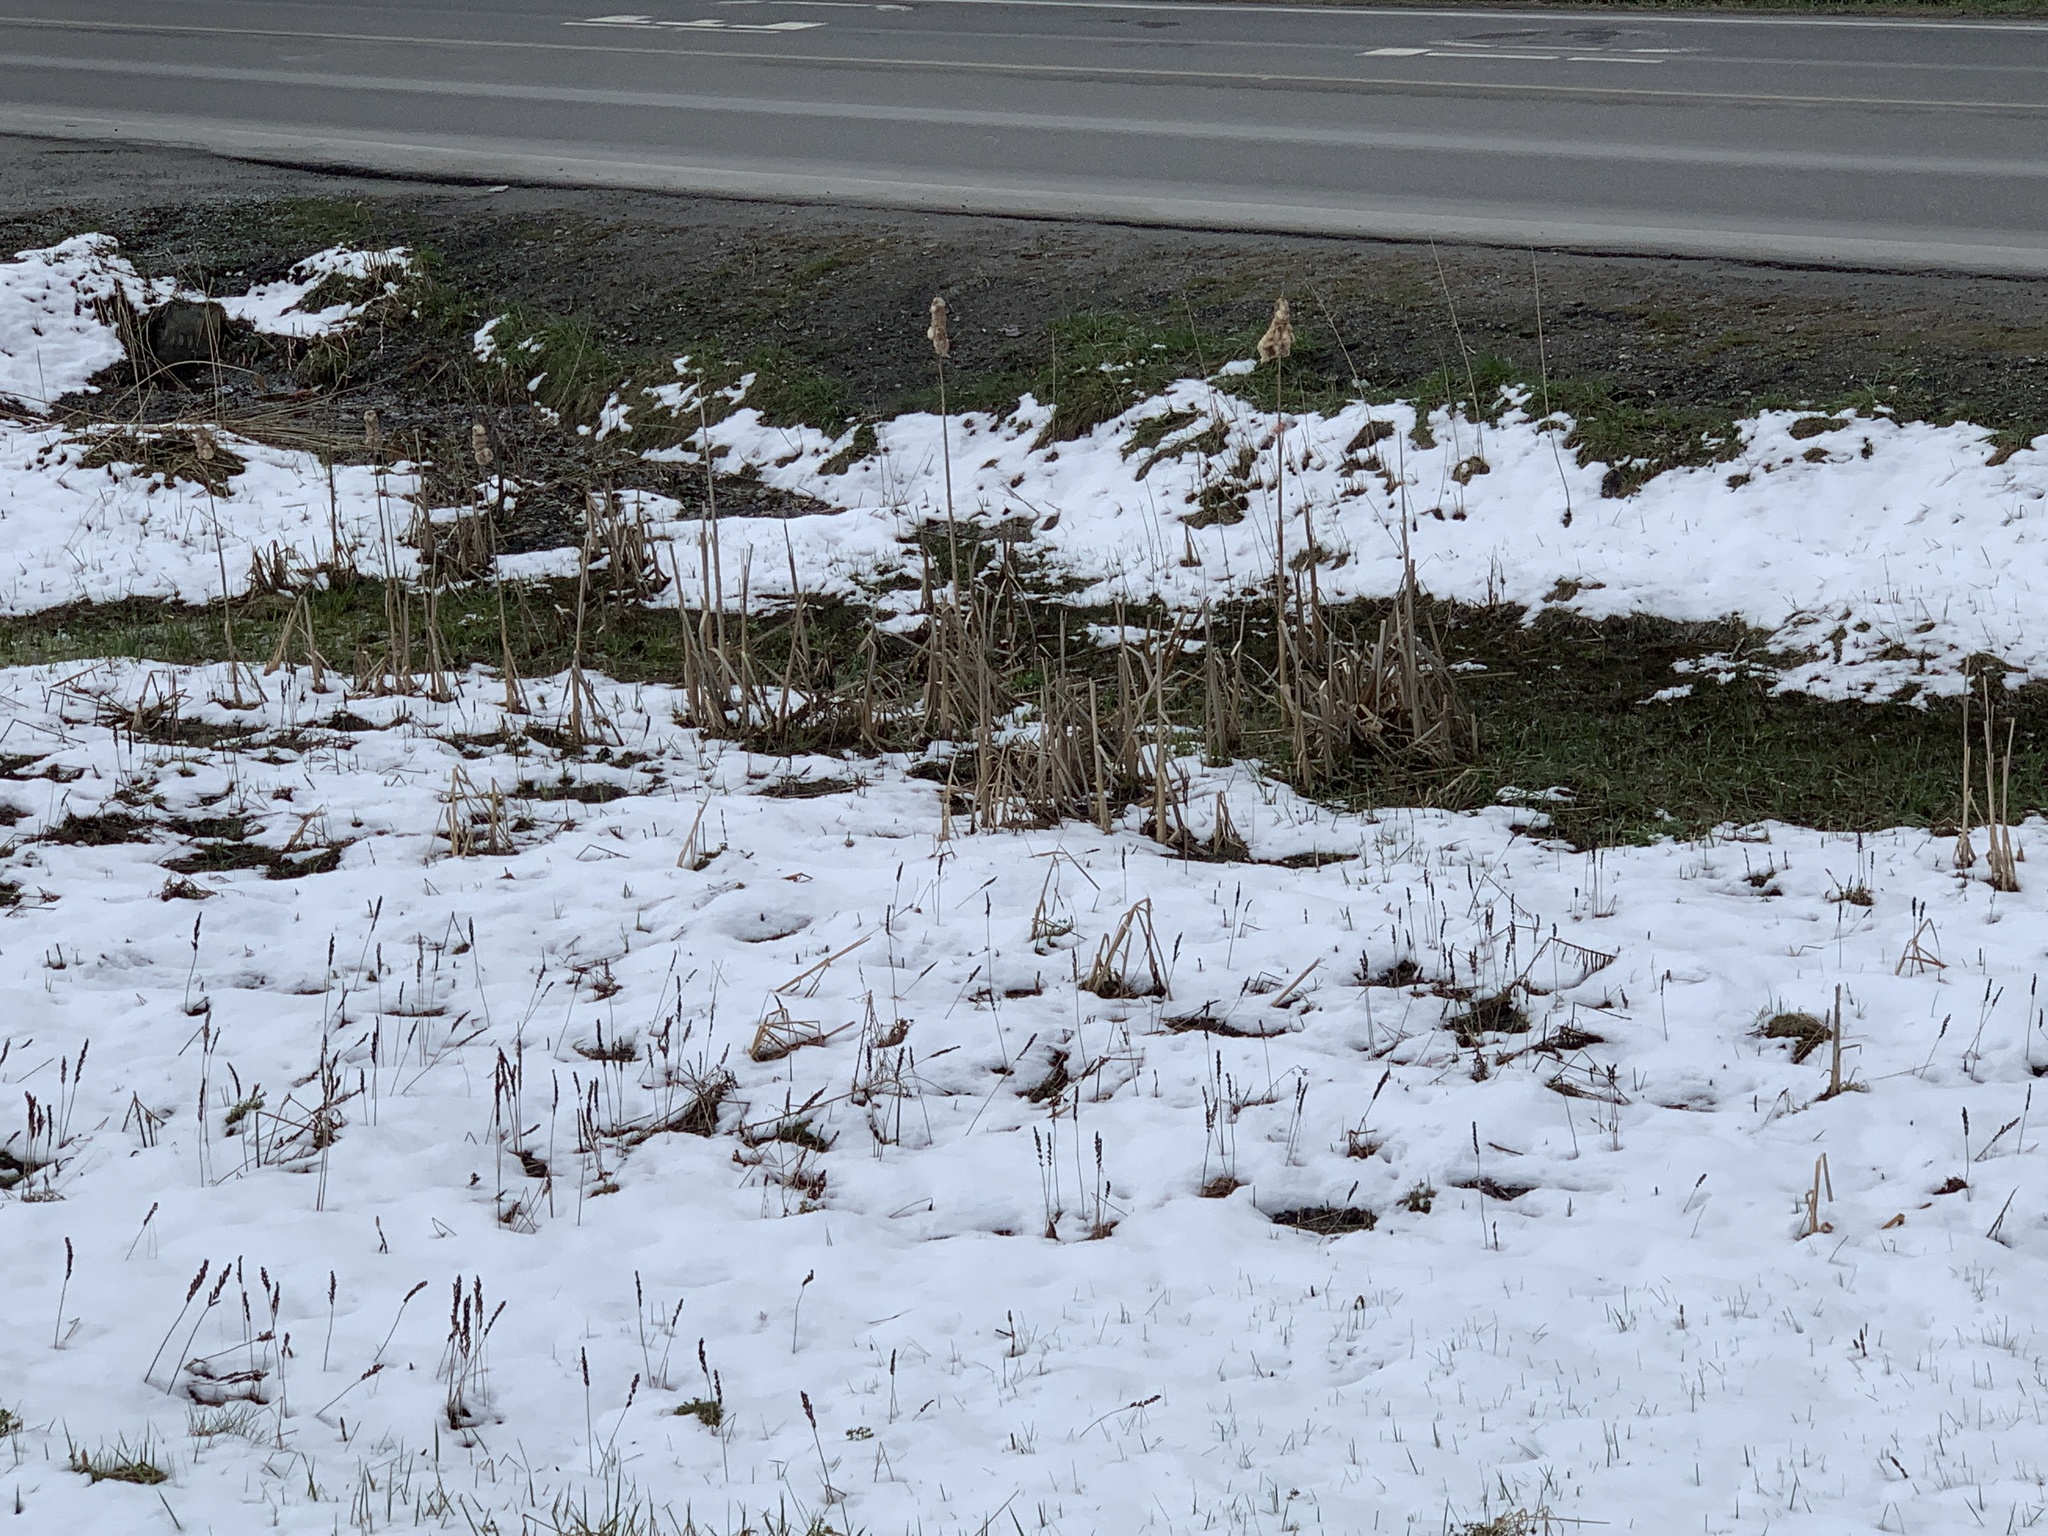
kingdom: Plantae
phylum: Tracheophyta
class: Liliopsida
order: Poales
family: Typhaceae
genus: Typha
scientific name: Typha latifolia
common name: Broadleaf cattail
